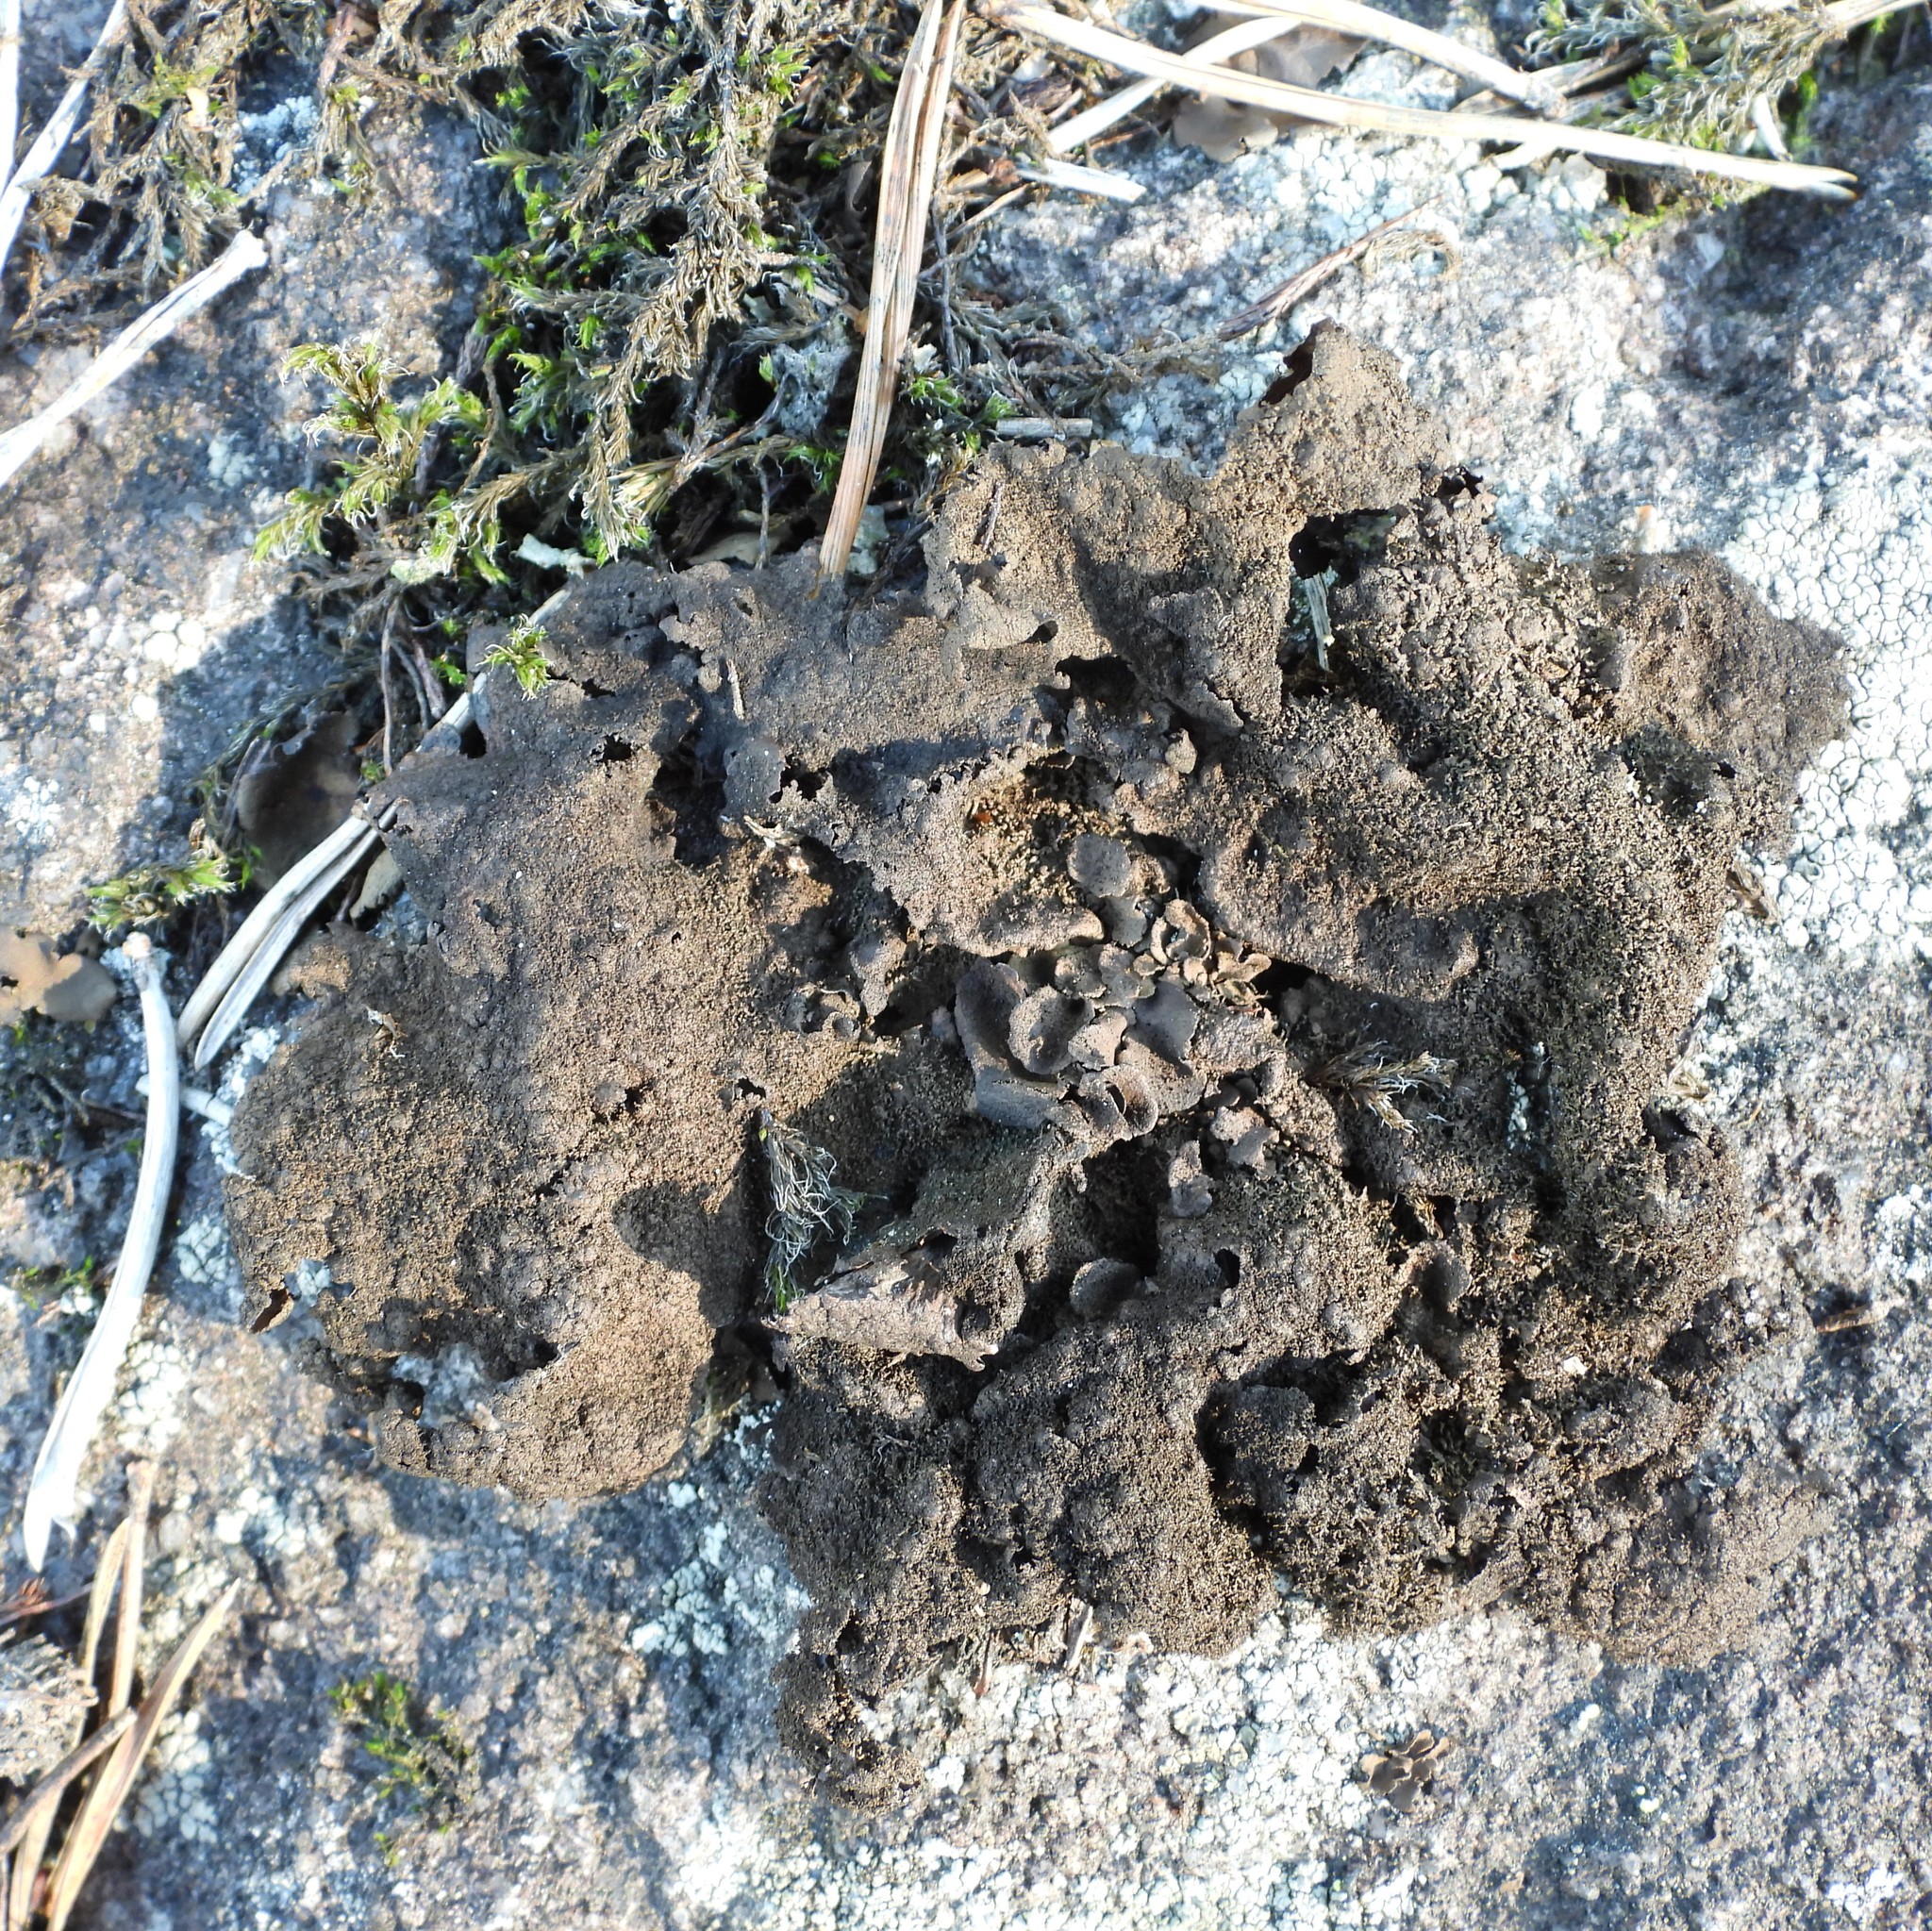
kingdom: Fungi
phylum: Ascomycota
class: Lecanoromycetes
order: Umbilicariales
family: Umbilicariaceae
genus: Umbilicaria
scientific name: Umbilicaria deusta
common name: Peppered rock tripe
